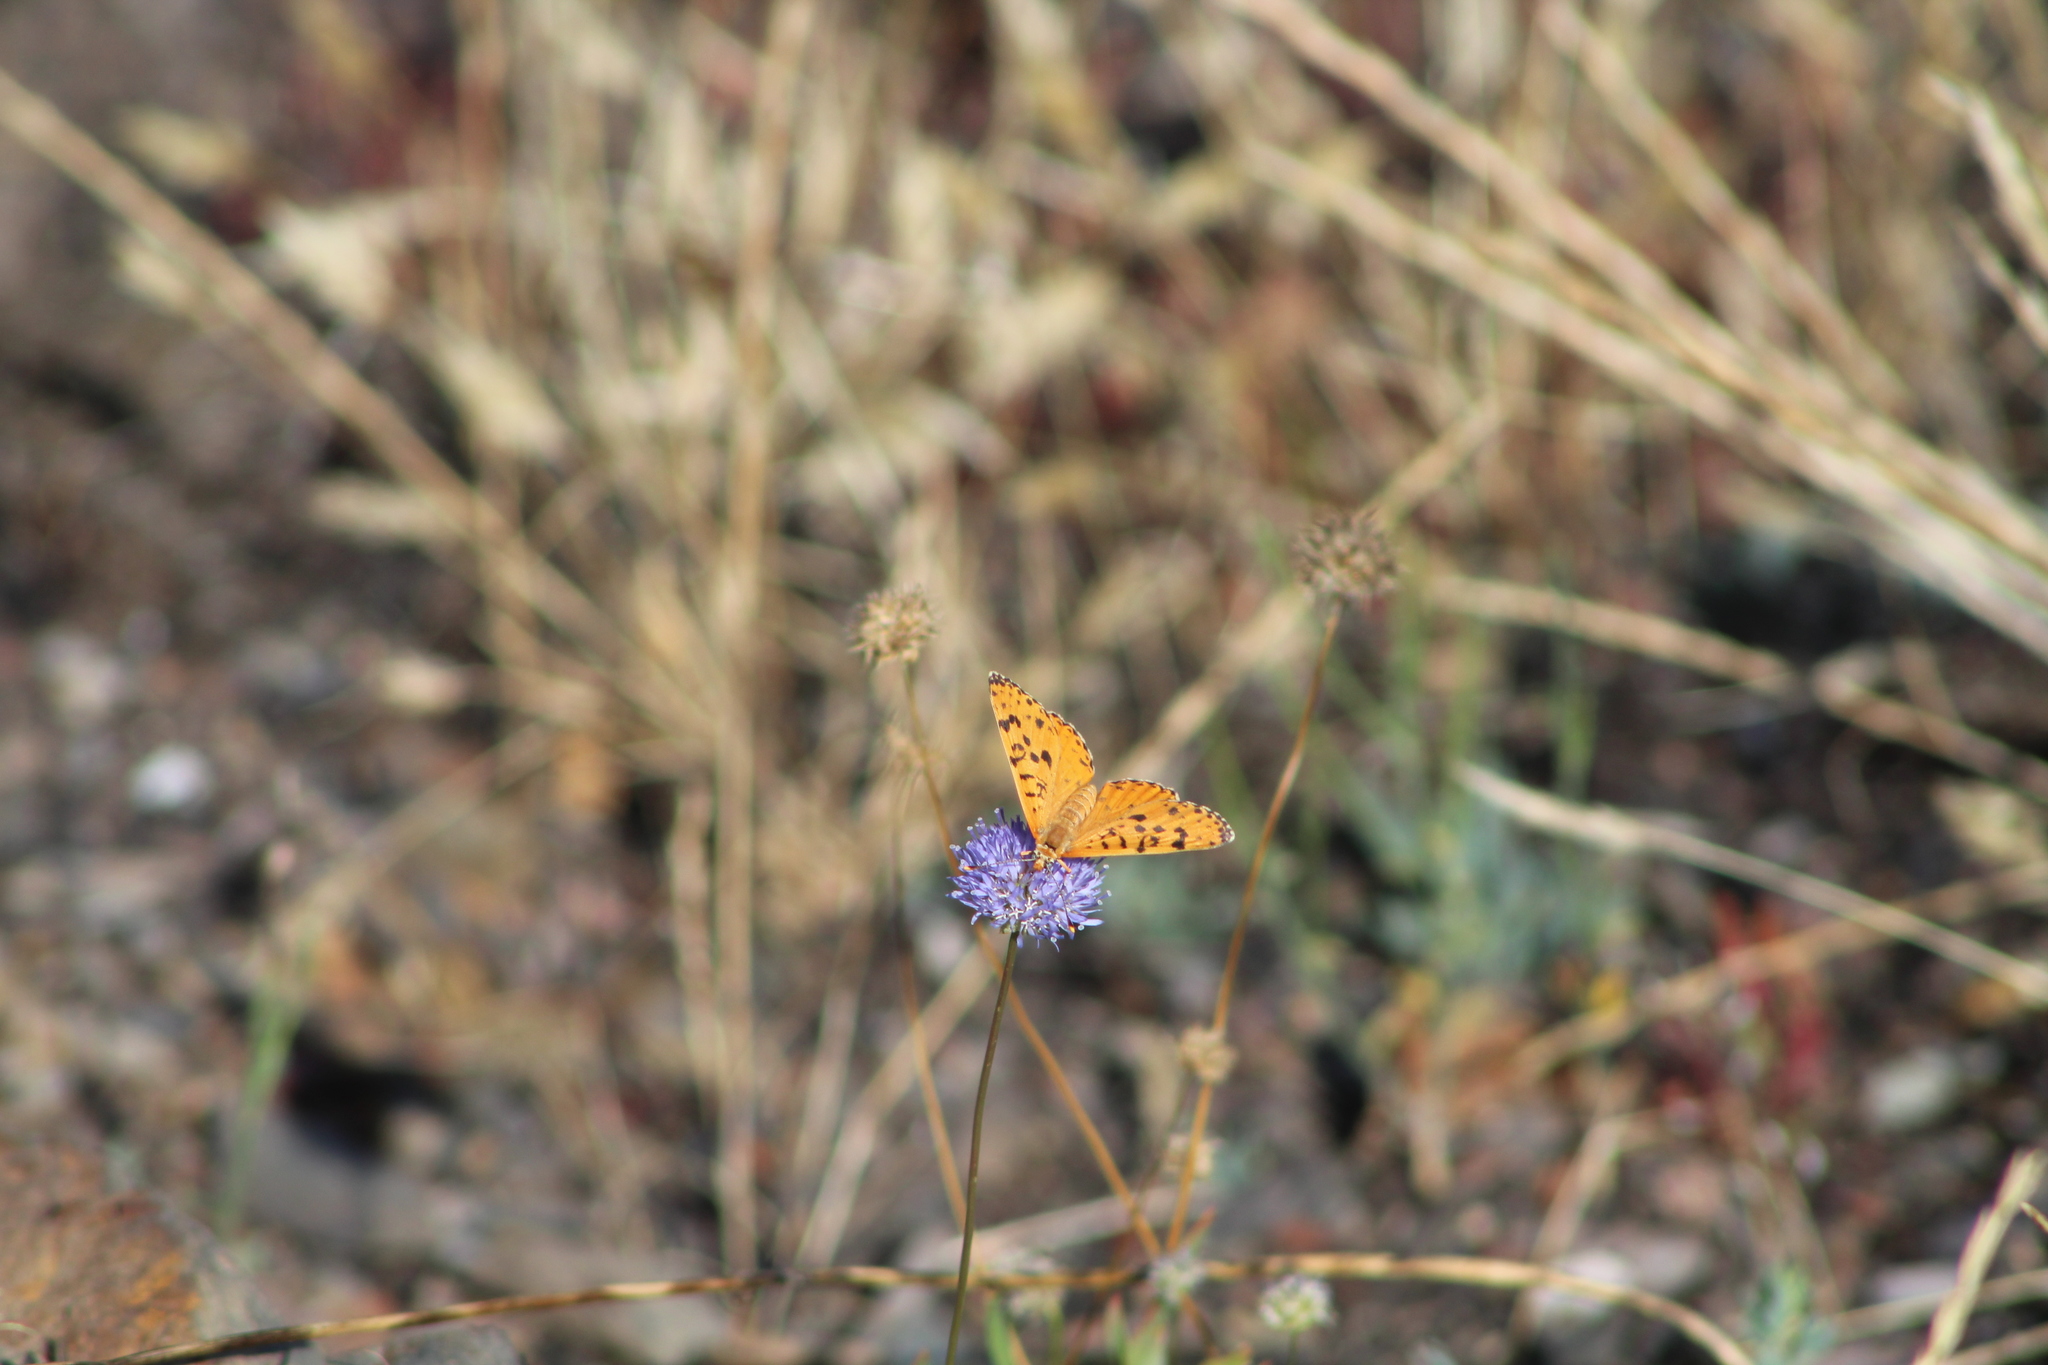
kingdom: Animalia
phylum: Arthropoda
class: Insecta
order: Lepidoptera
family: Nymphalidae
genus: Melitaea
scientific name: Melitaea didyma
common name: Spotted fritillary
